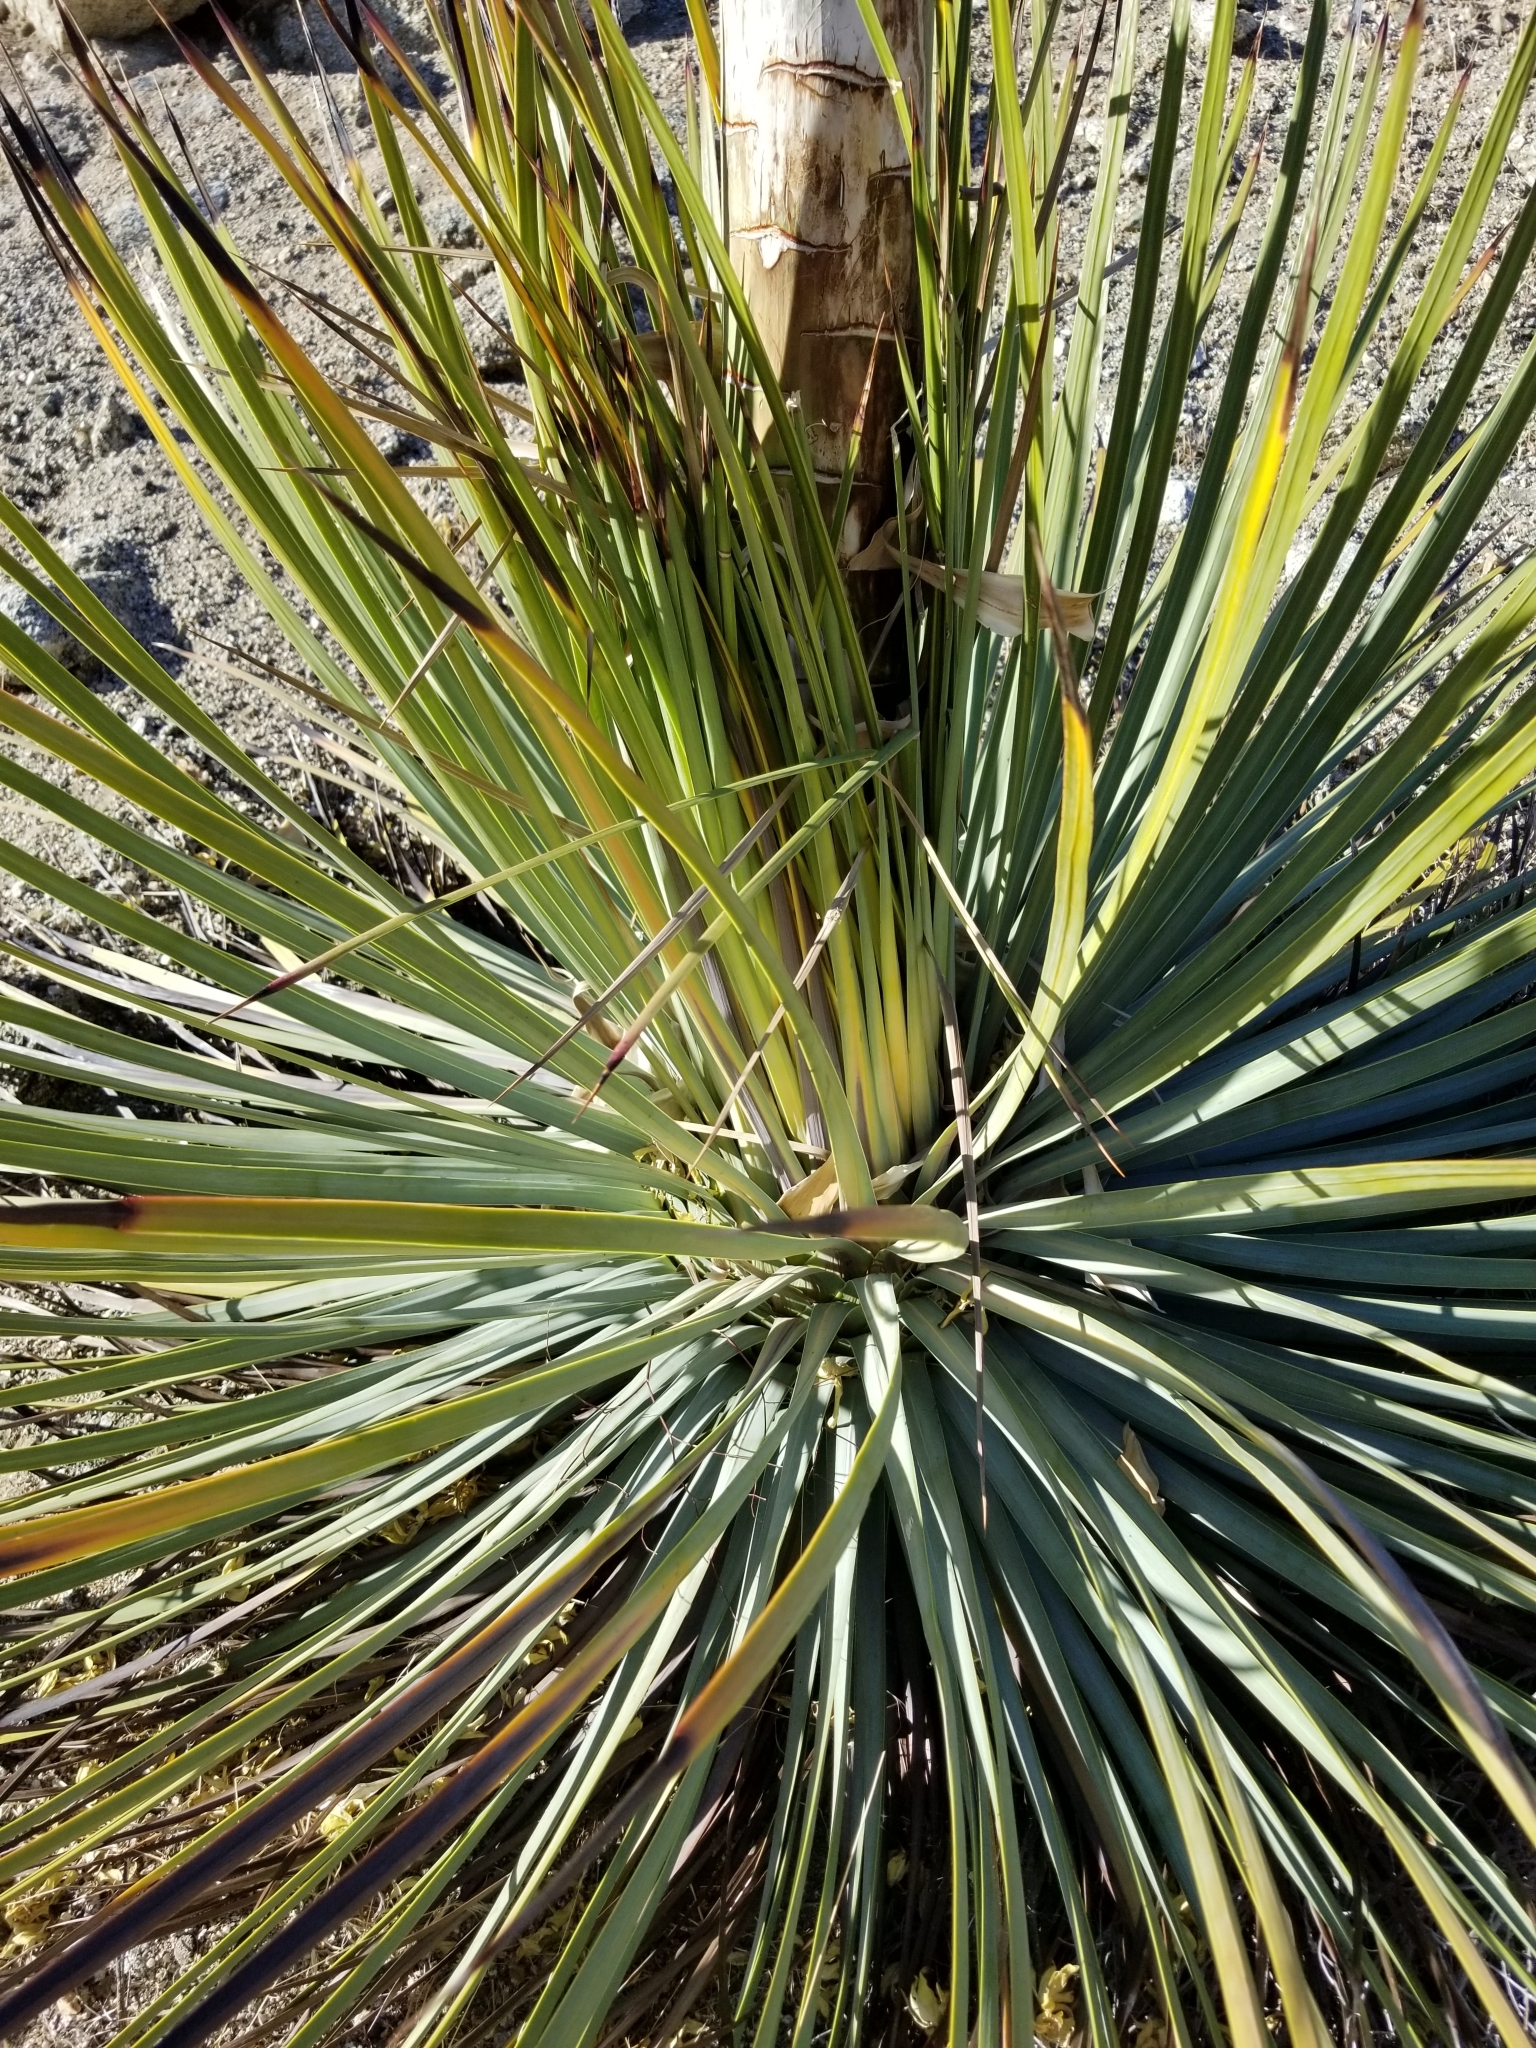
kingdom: Plantae
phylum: Tracheophyta
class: Liliopsida
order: Asparagales
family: Asparagaceae
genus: Hesperoyucca
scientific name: Hesperoyucca whipplei
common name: Our lord's-candle
